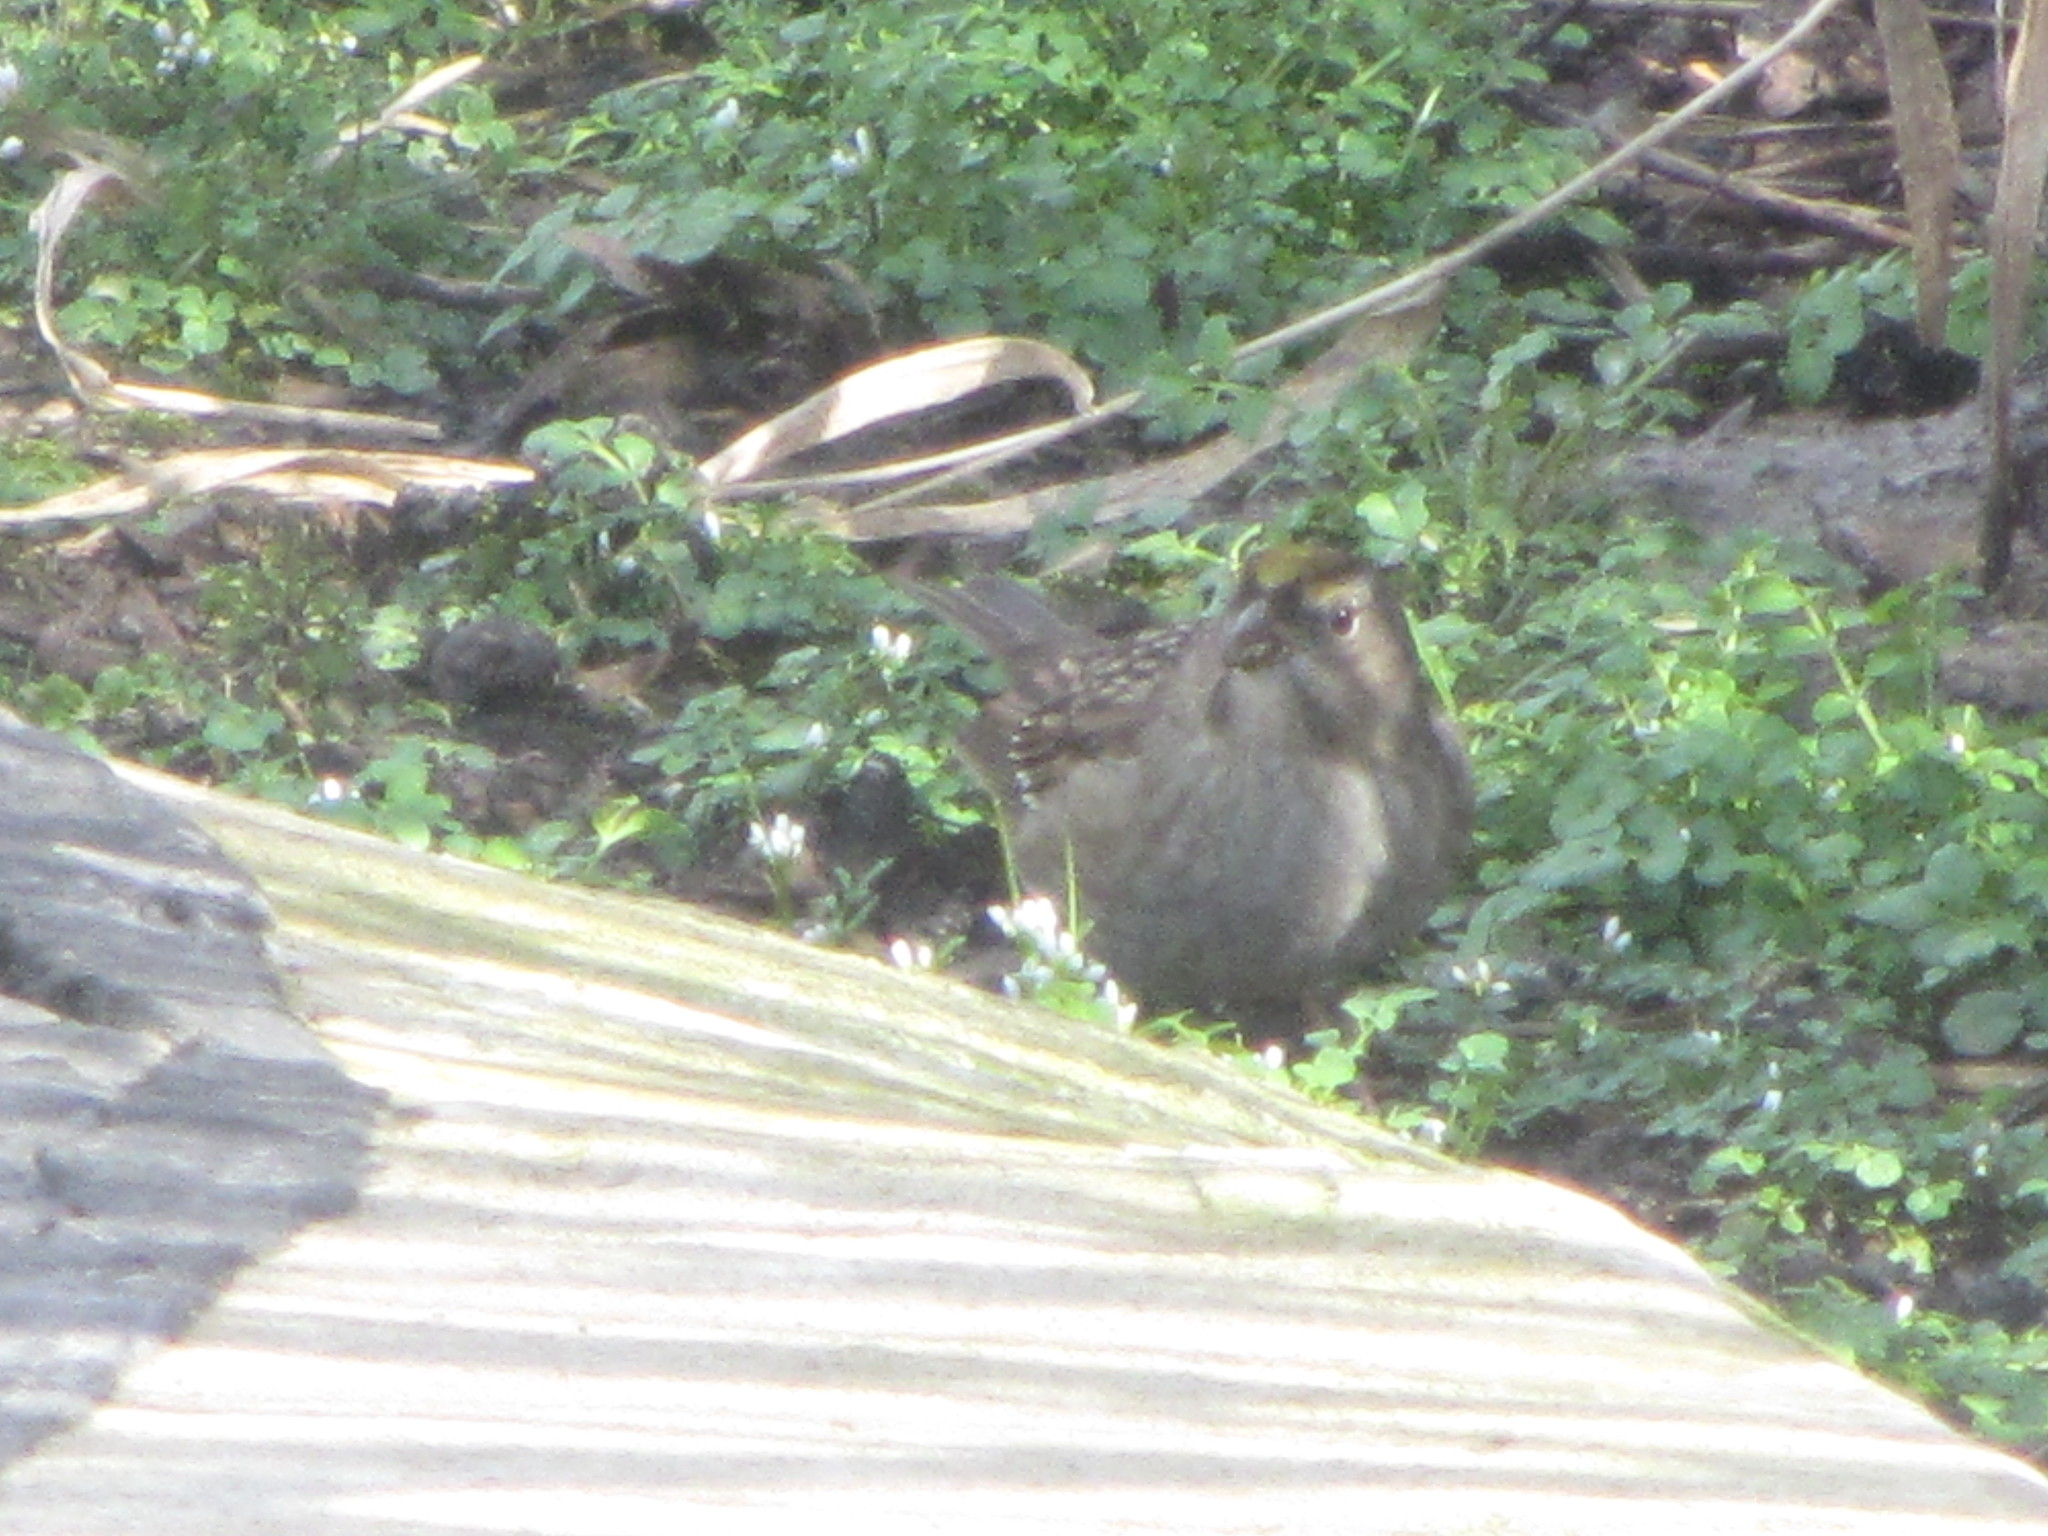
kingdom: Animalia
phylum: Chordata
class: Aves
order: Passeriformes
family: Passerellidae
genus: Zonotrichia
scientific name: Zonotrichia atricapilla
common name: Golden-crowned sparrow
